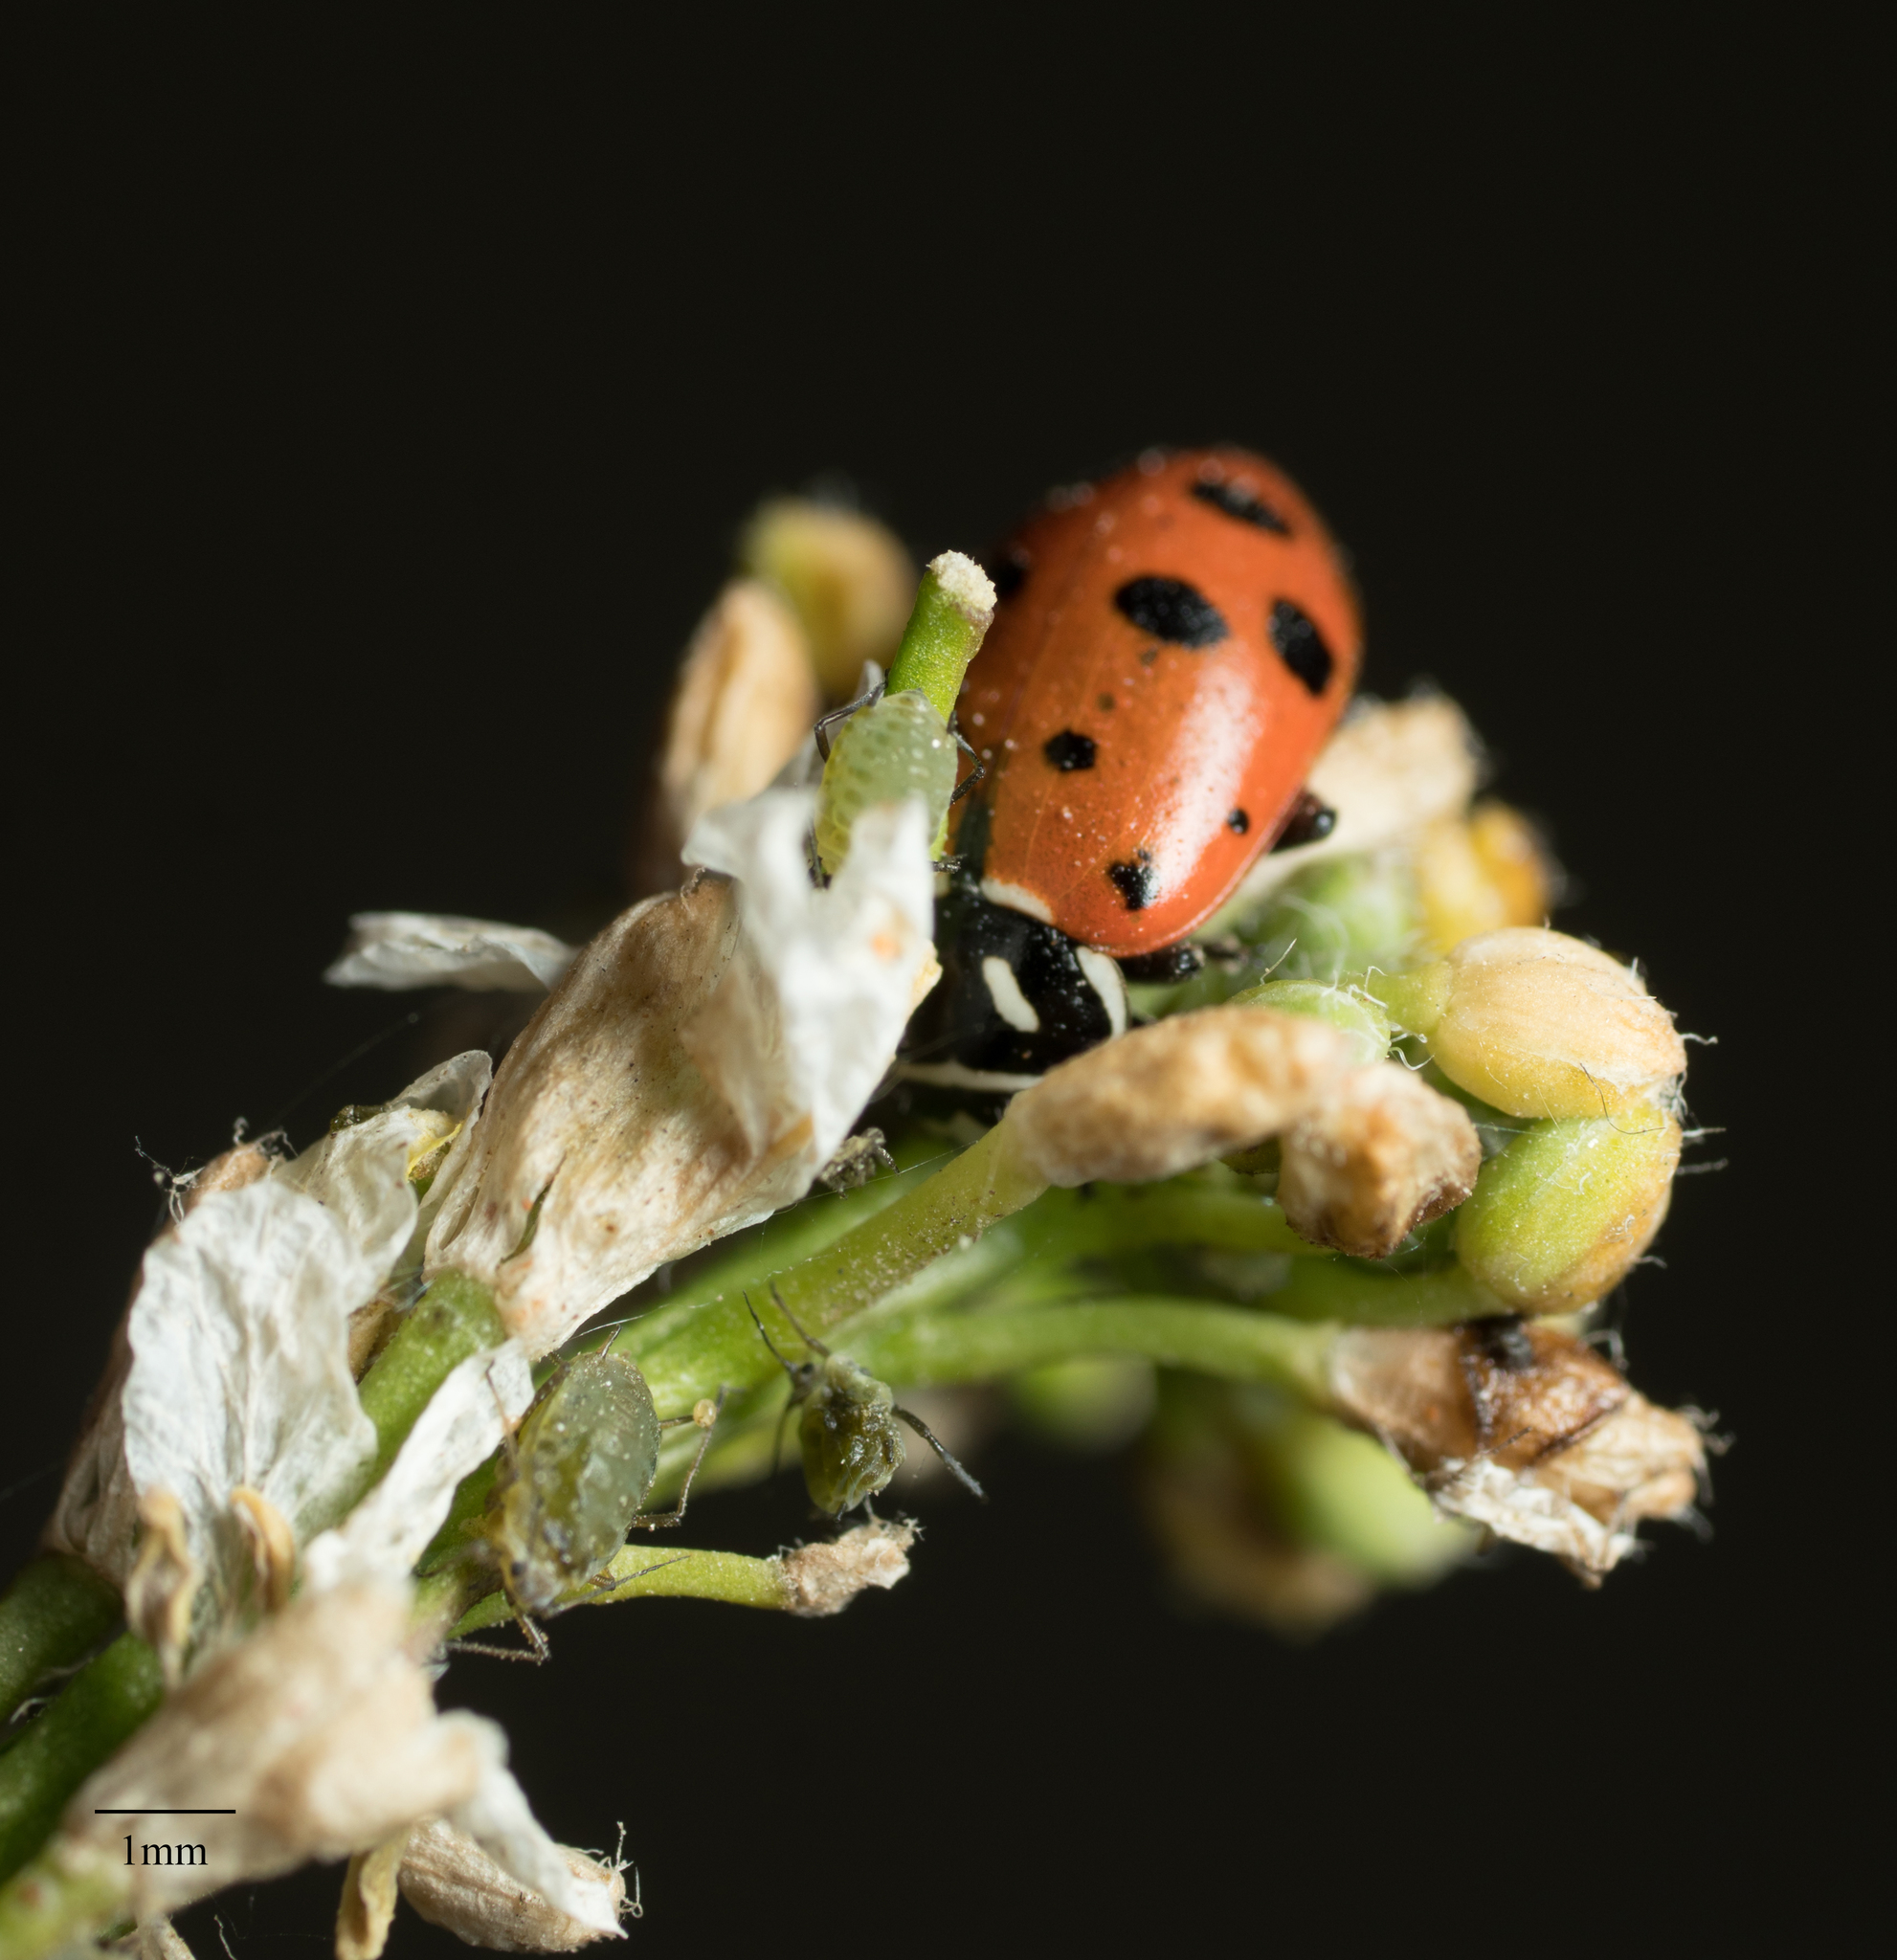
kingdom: Animalia
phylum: Arthropoda
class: Insecta
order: Coleoptera
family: Coccinellidae
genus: Hippodamia
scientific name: Hippodamia convergens
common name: Convergent lady beetle
